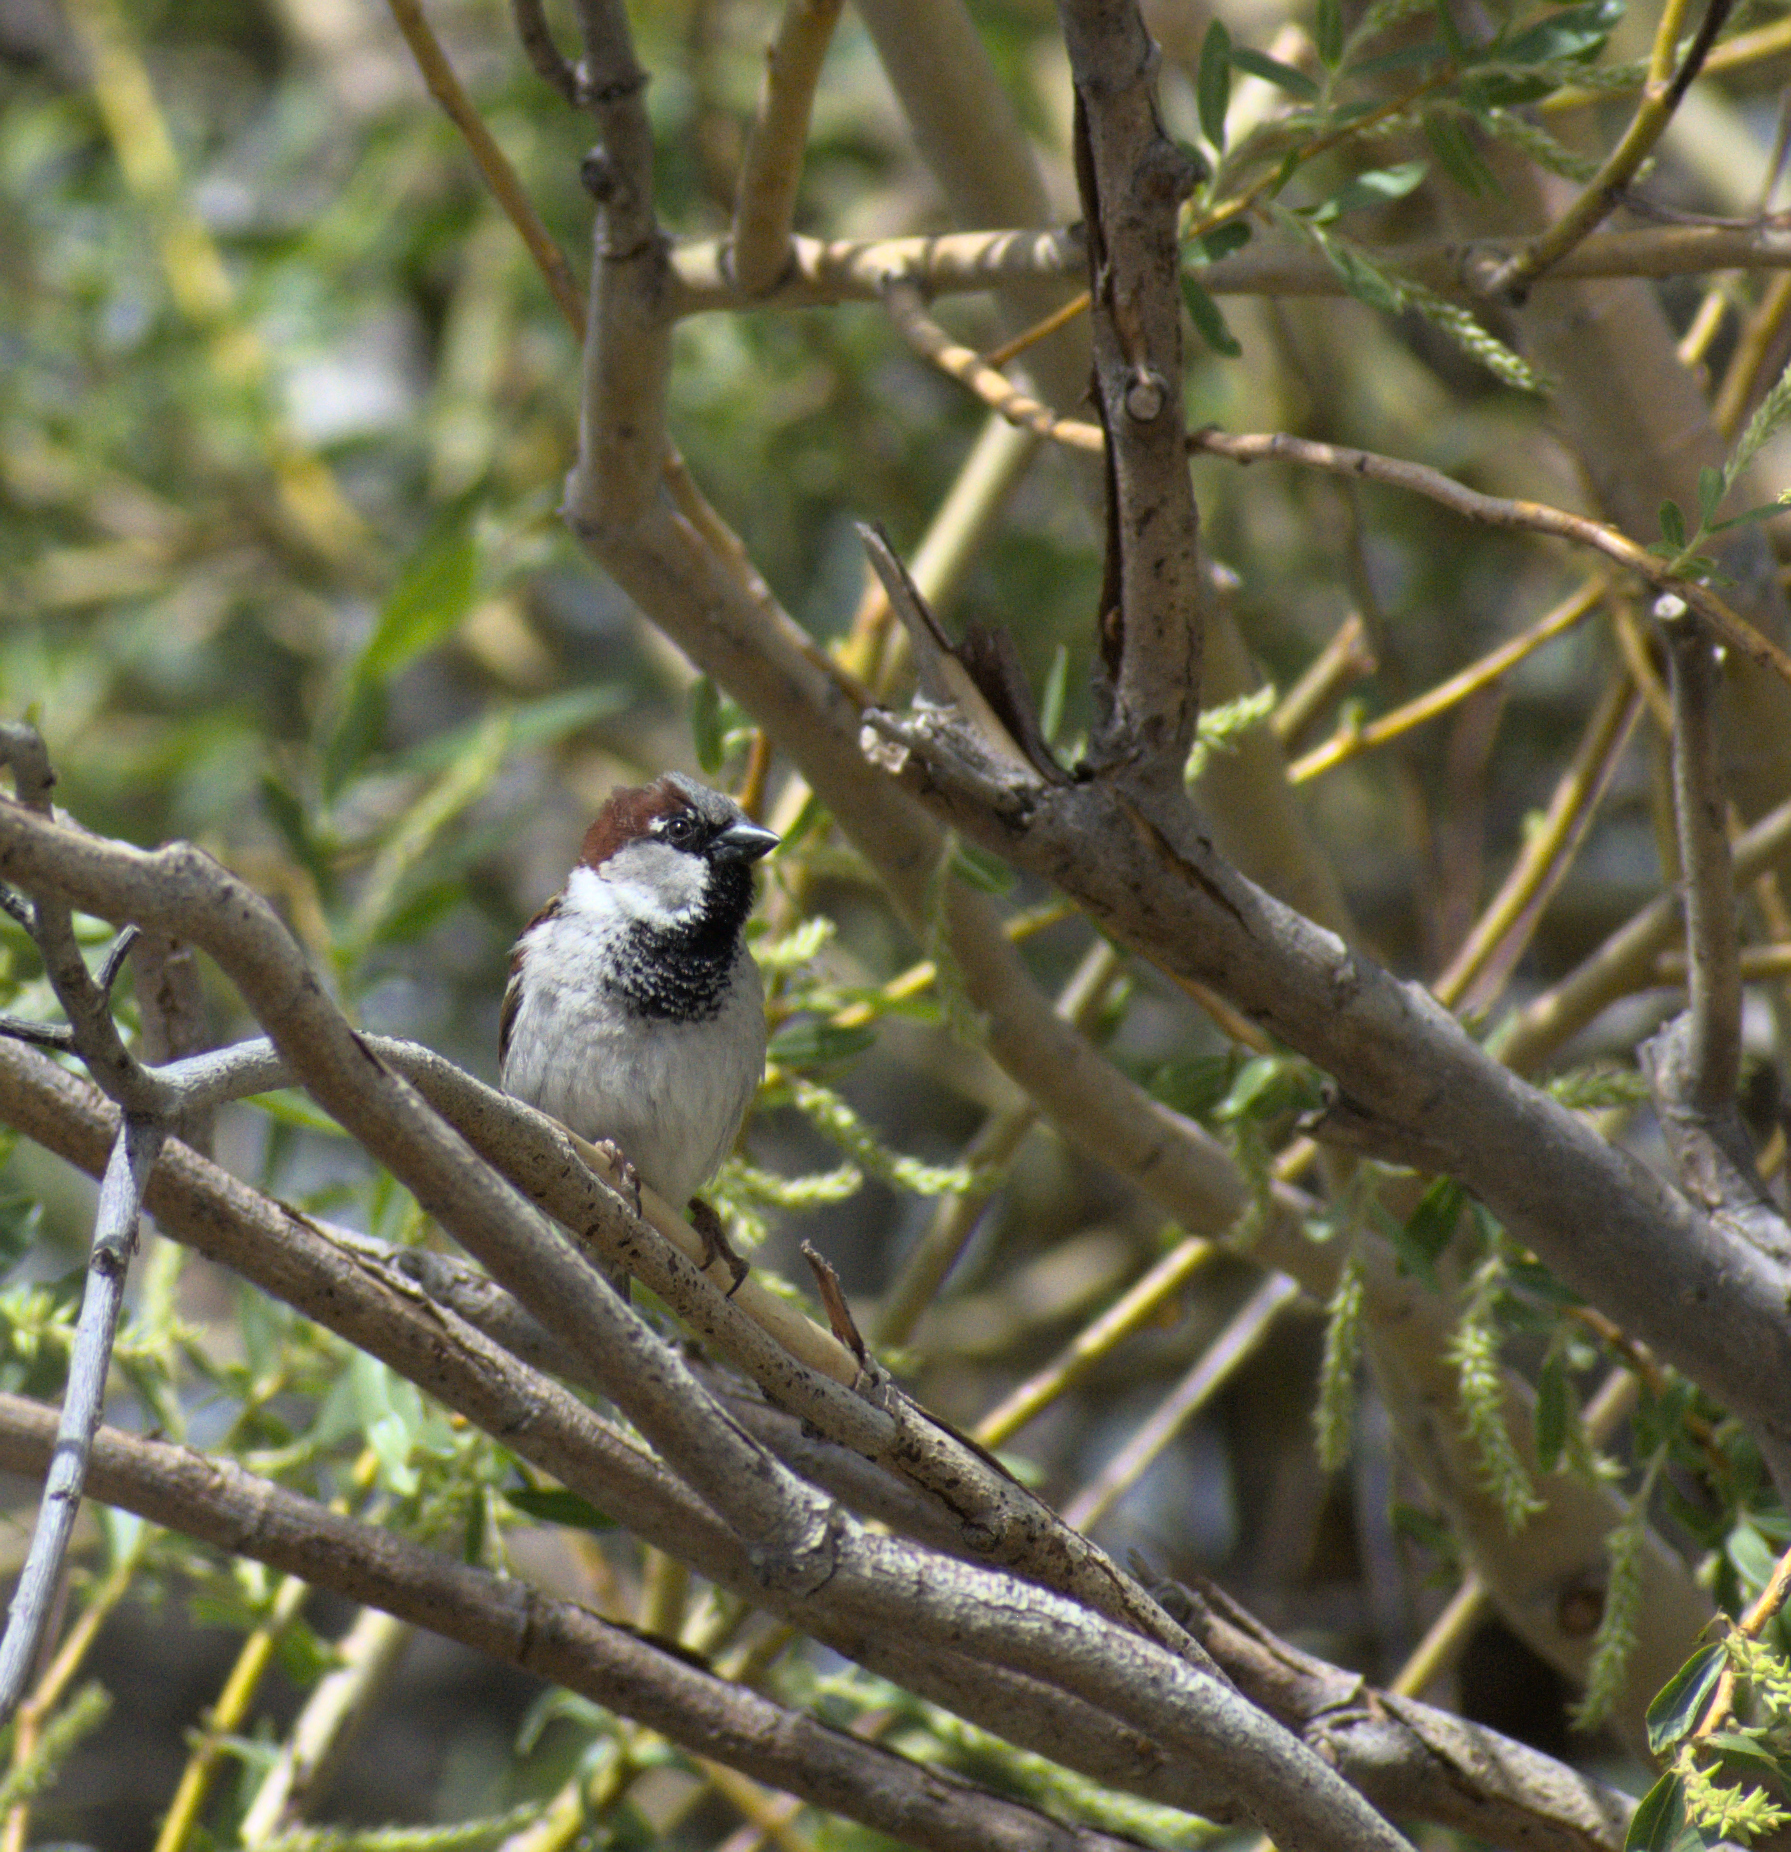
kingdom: Animalia
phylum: Chordata
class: Aves
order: Passeriformes
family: Passeridae
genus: Passer
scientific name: Passer domesticus
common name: House sparrow
